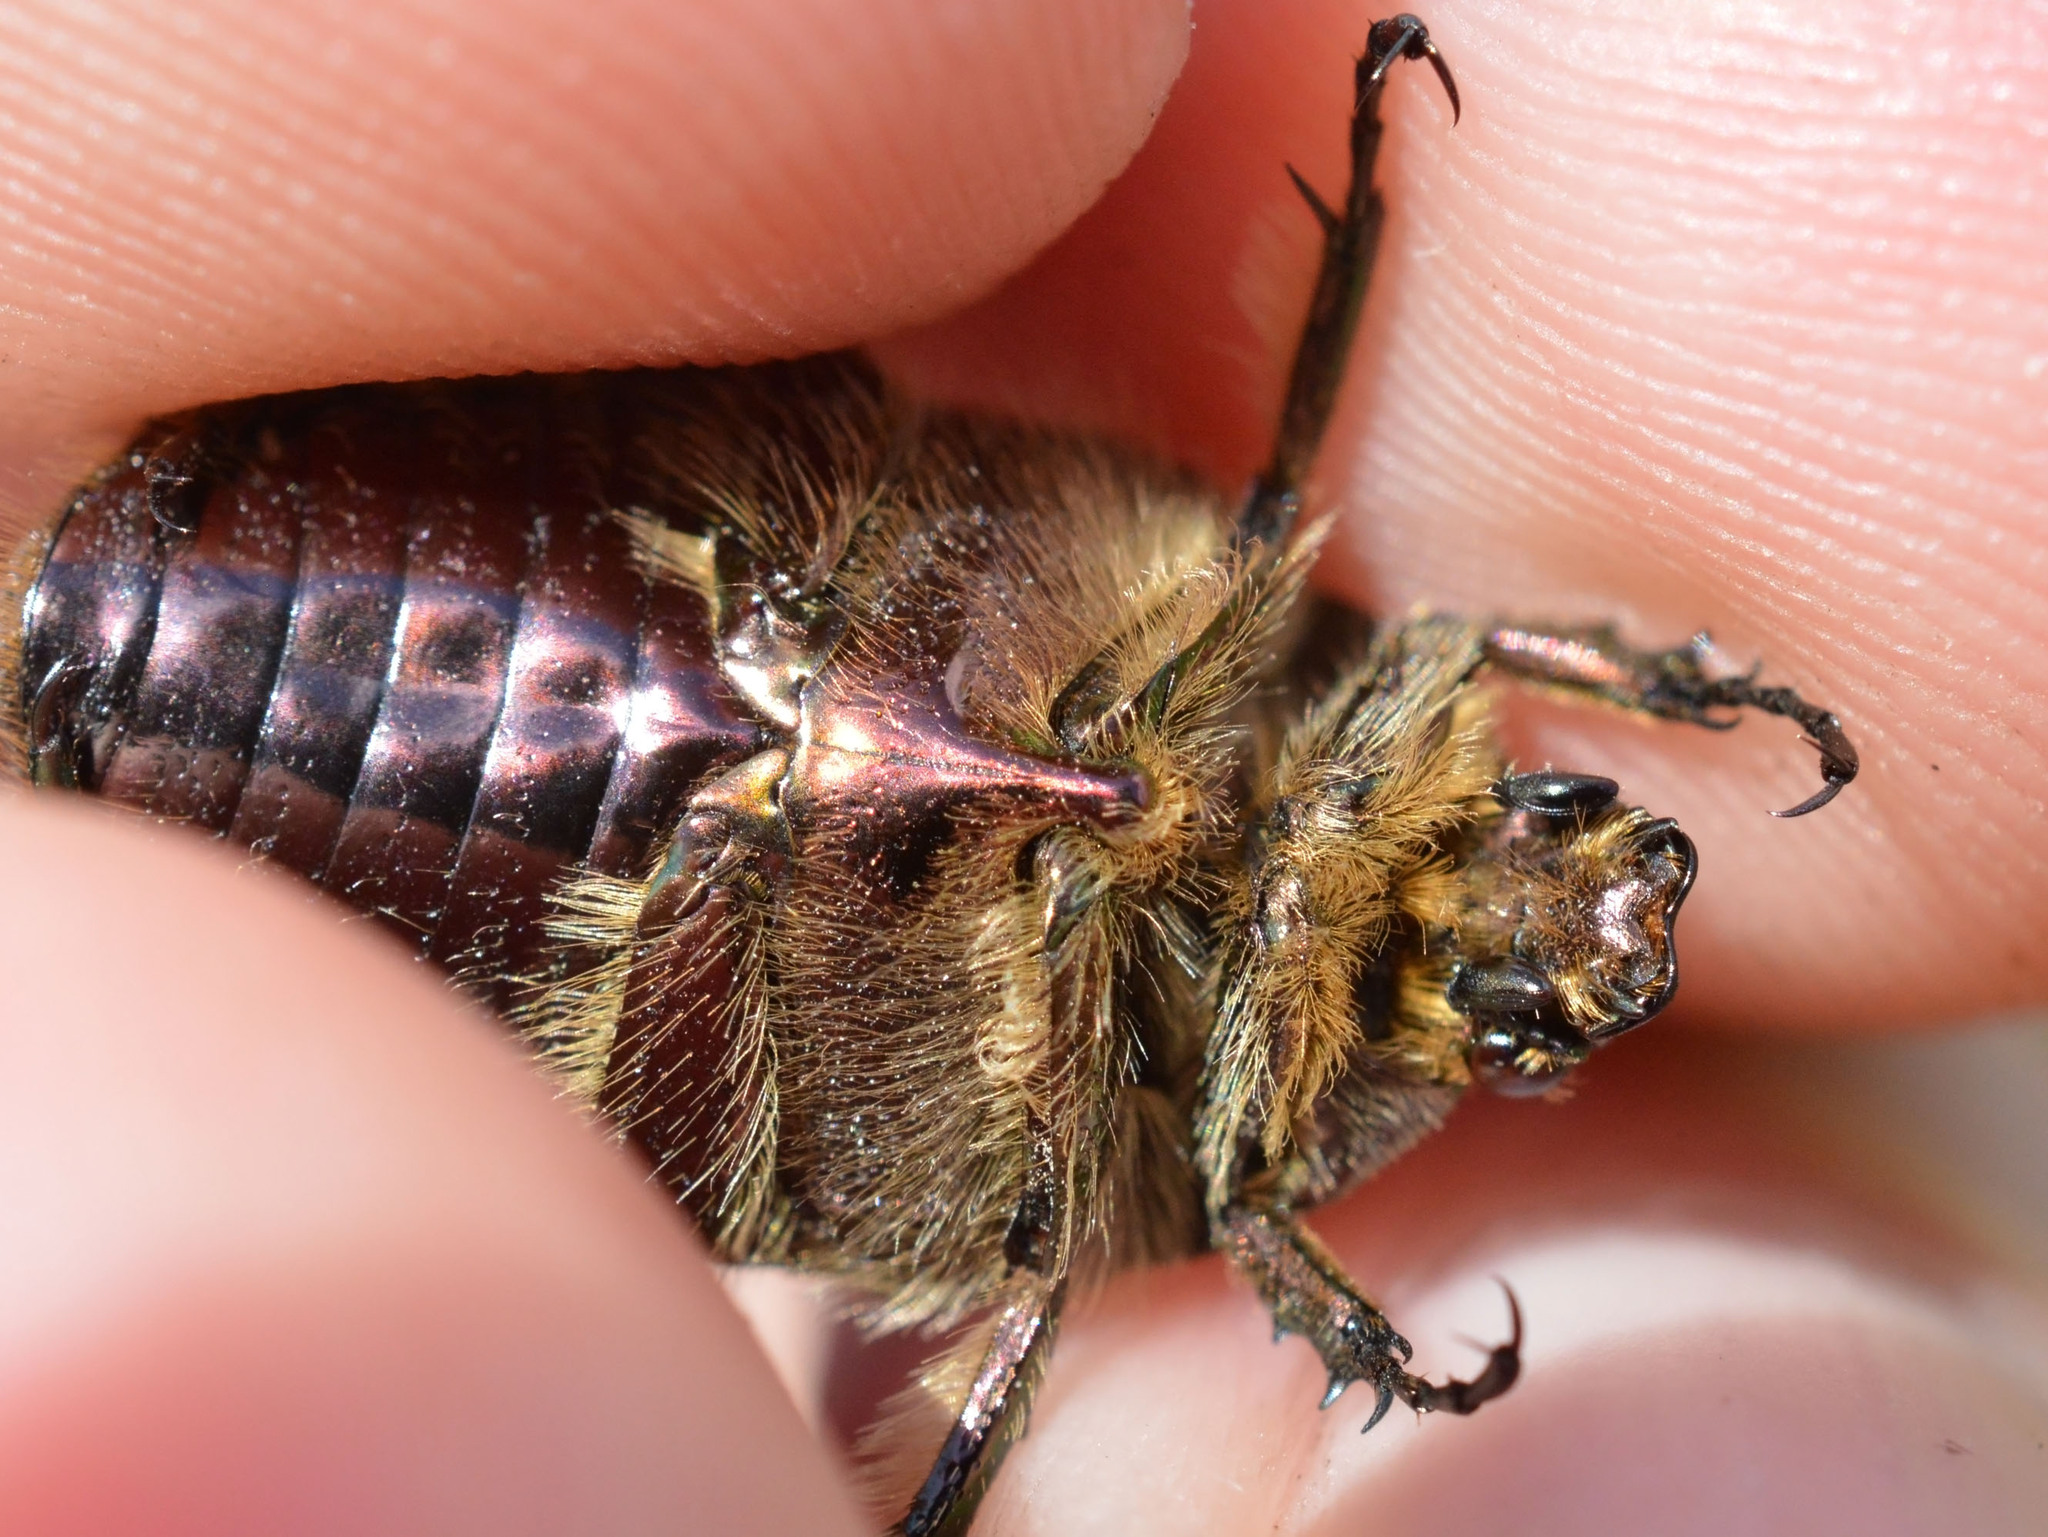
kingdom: Animalia
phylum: Arthropoda
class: Insecta
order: Coleoptera
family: Scarabaeidae
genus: Cetonia
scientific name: Cetonia aurata
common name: Rose chafer
